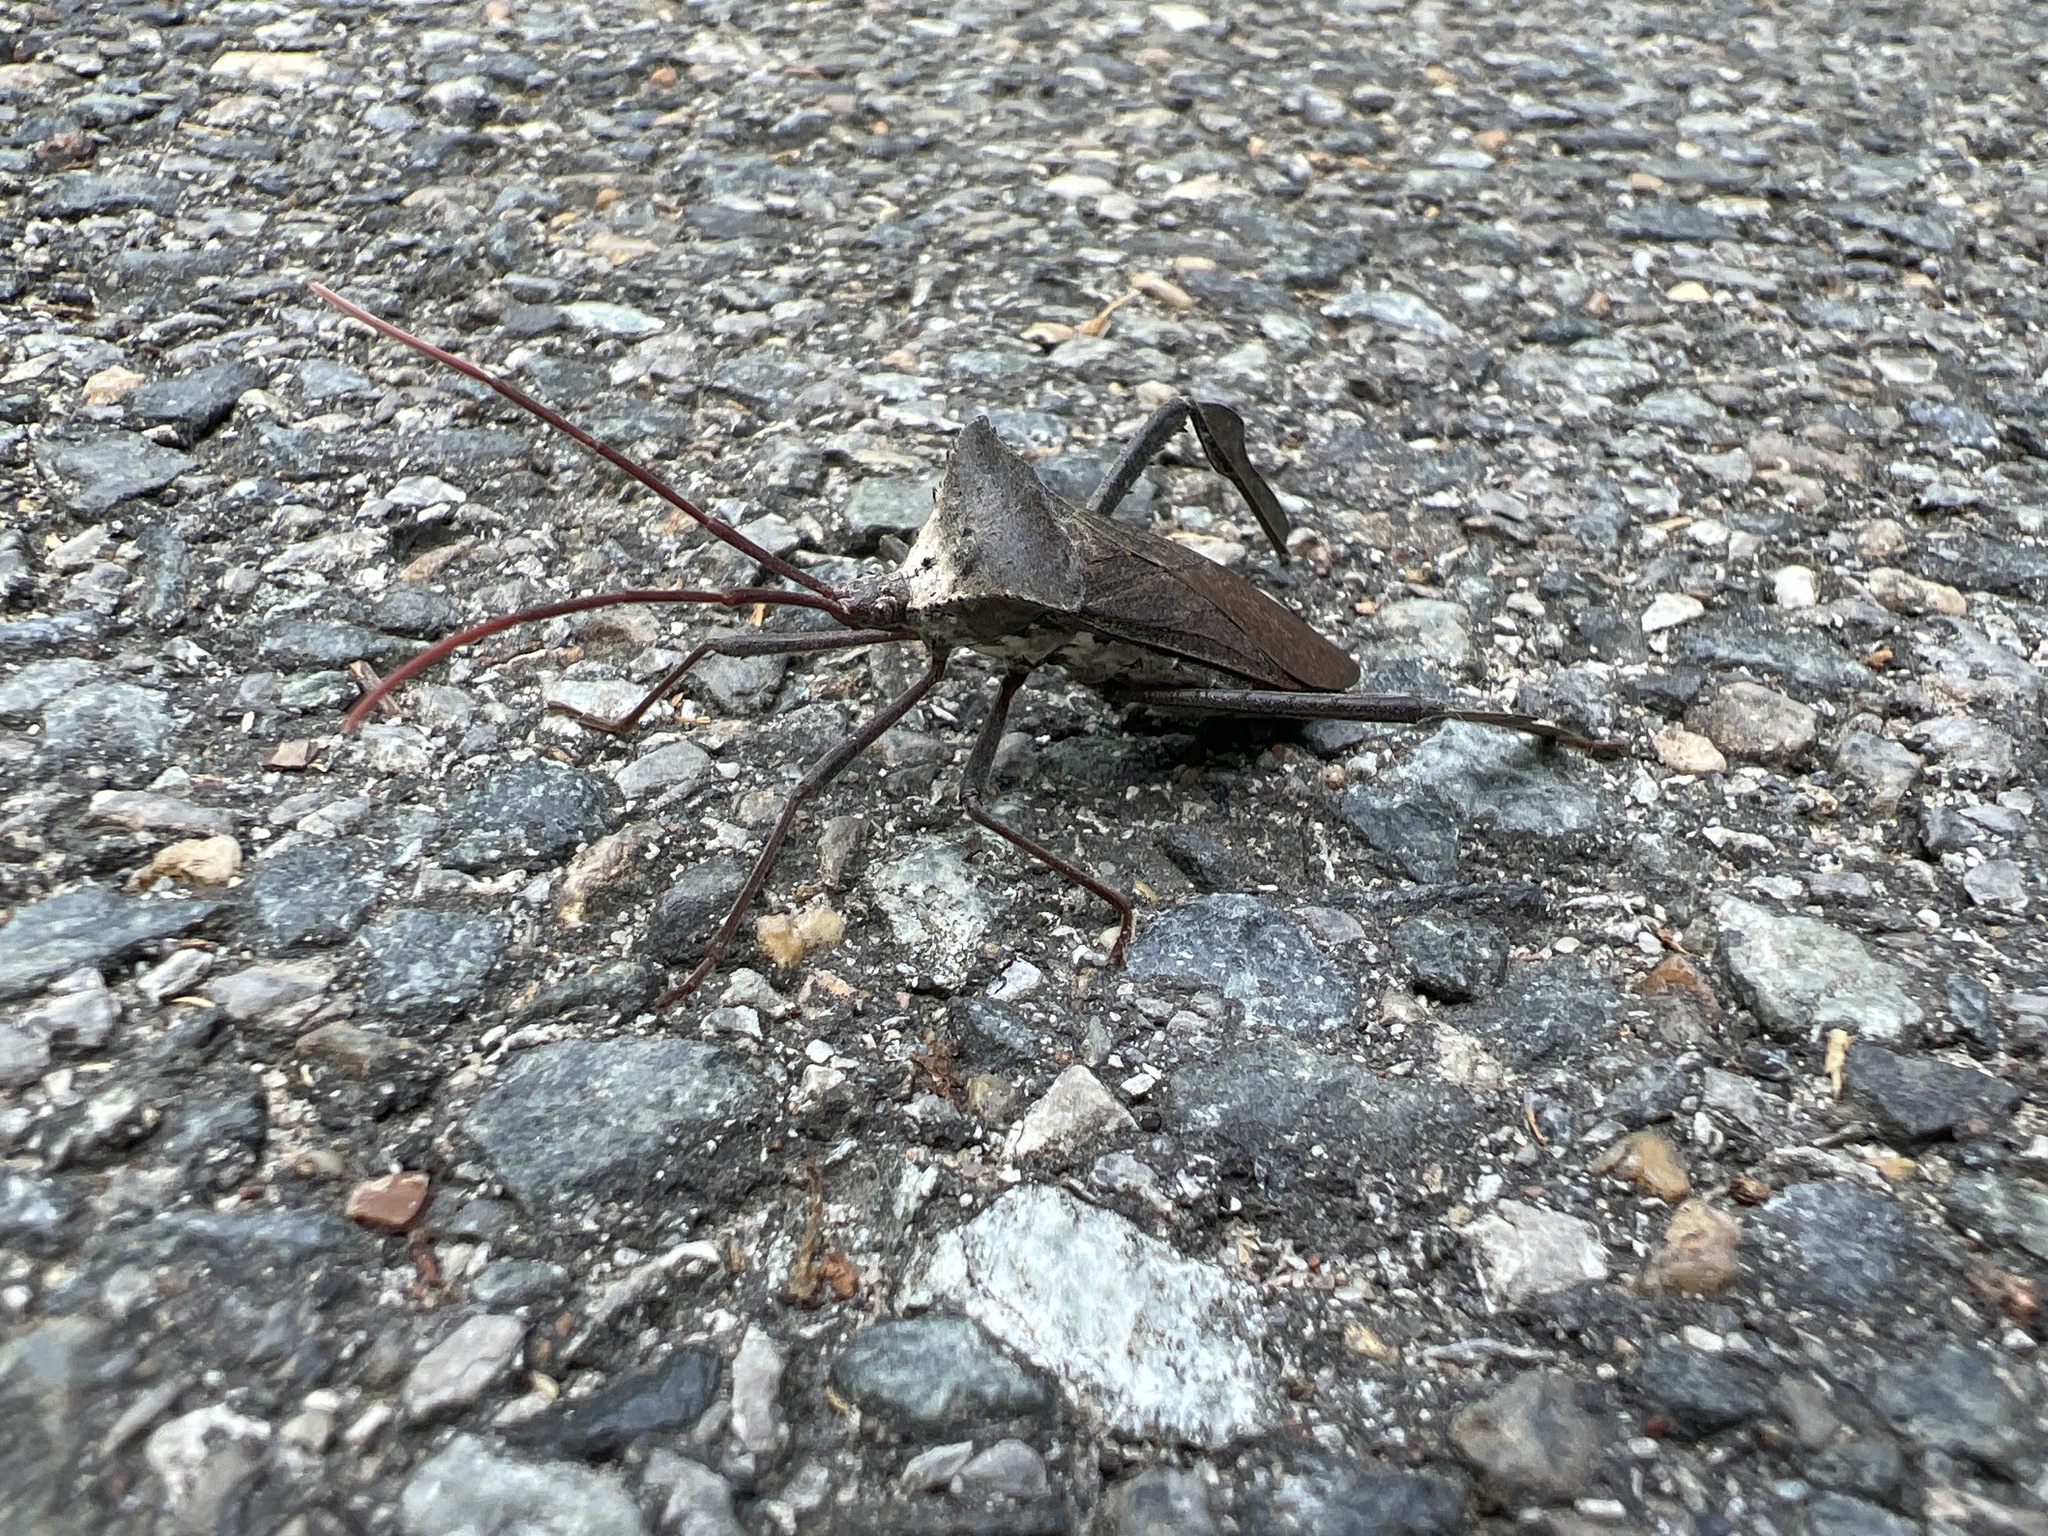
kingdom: Animalia
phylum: Arthropoda
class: Insecta
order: Hemiptera
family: Coreidae
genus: Acanthocephala
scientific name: Acanthocephala declivis
